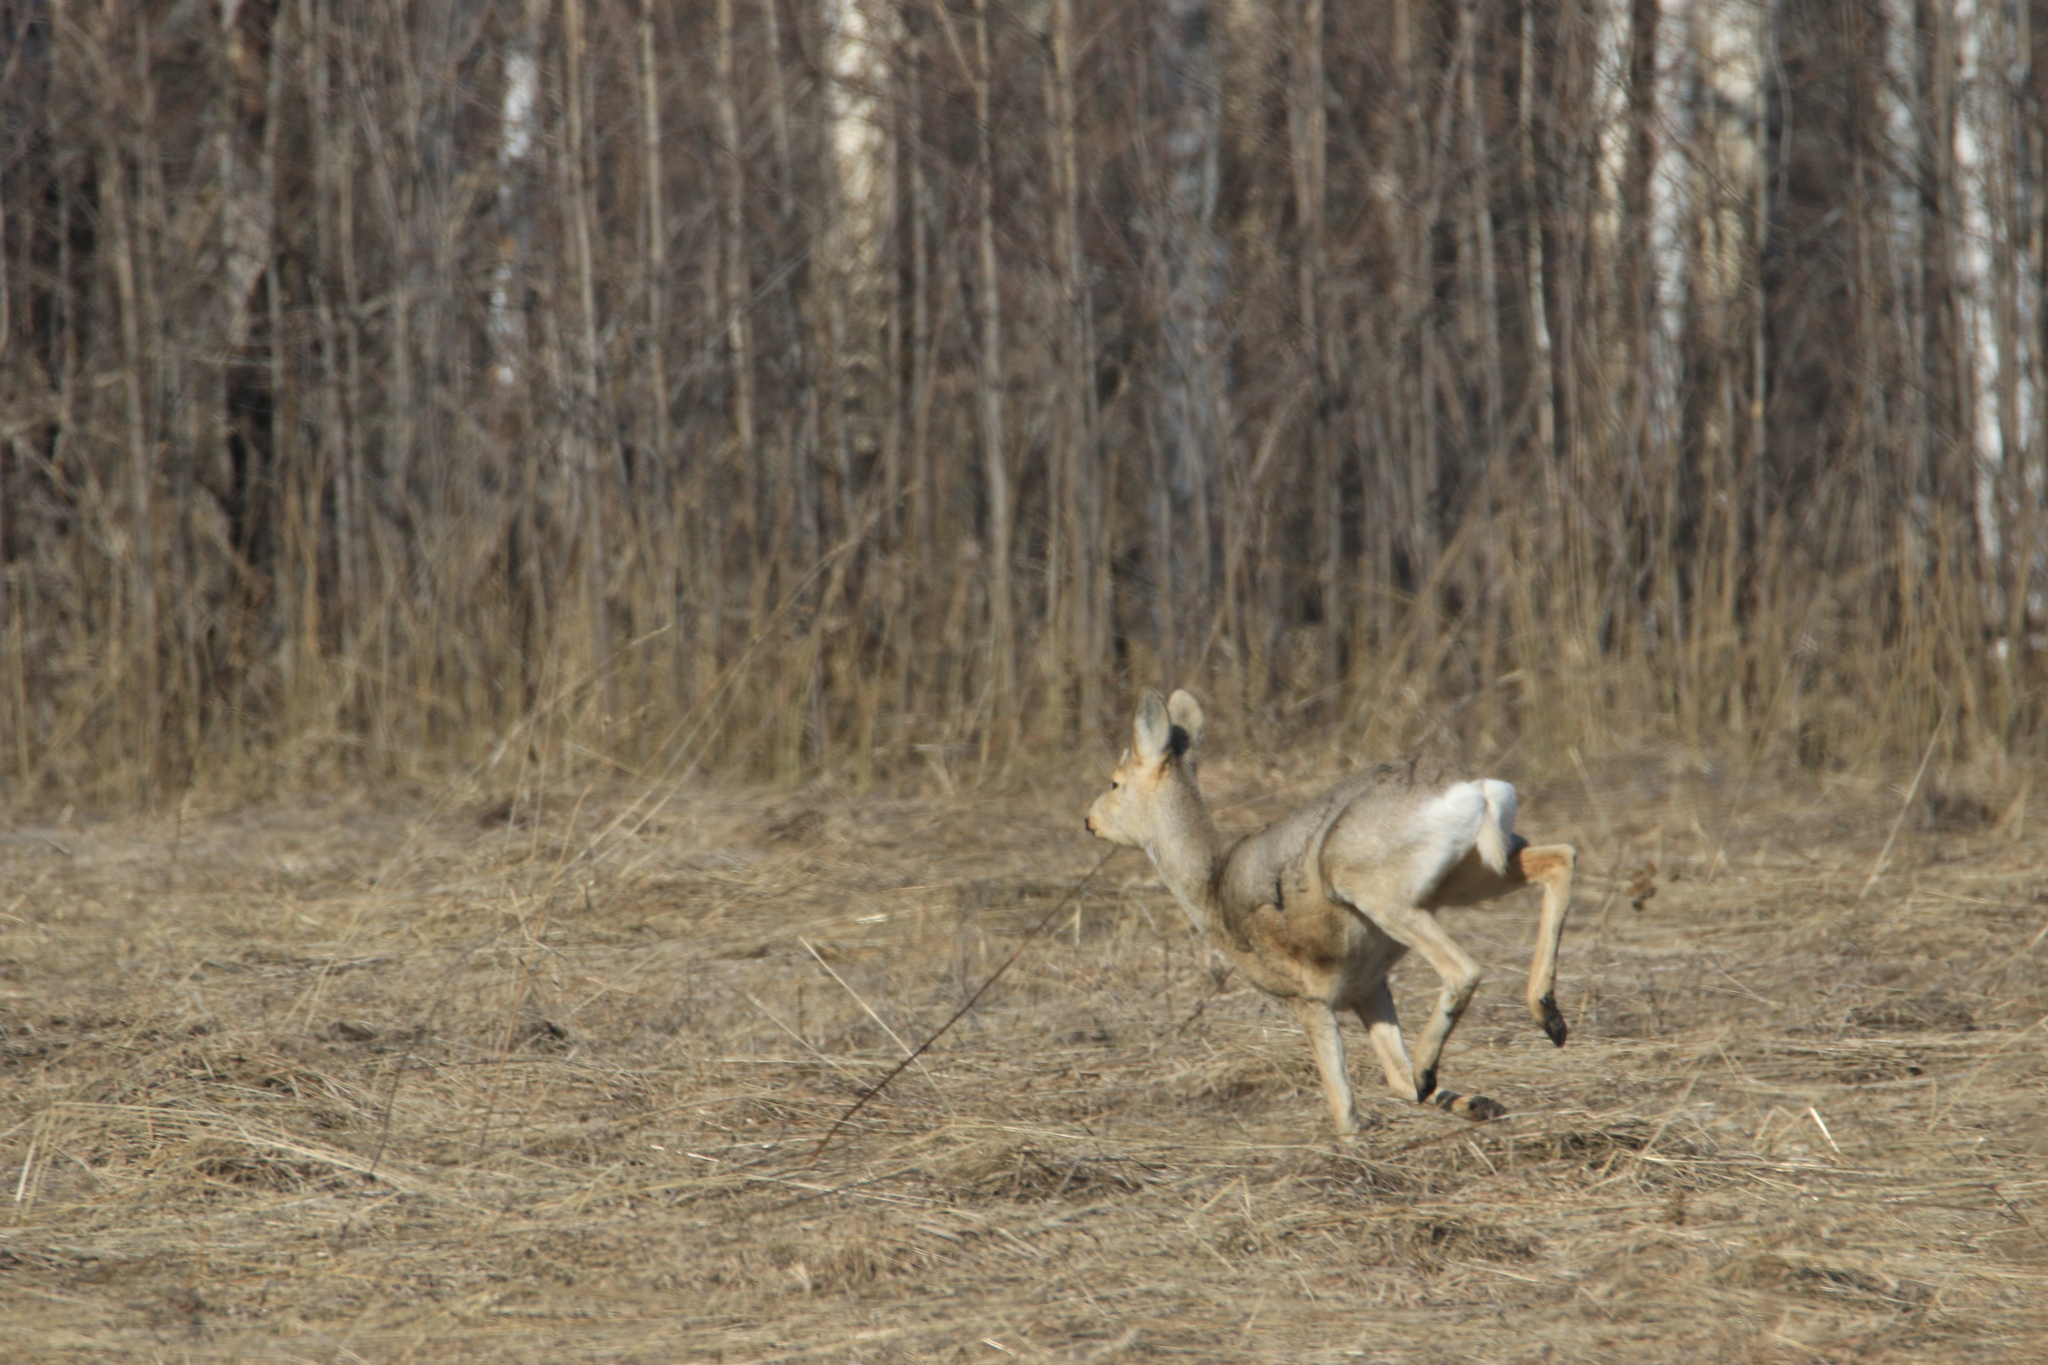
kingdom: Animalia
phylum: Chordata
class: Mammalia
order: Artiodactyla
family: Cervidae
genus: Capreolus
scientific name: Capreolus pygargus
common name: Siberian roe
